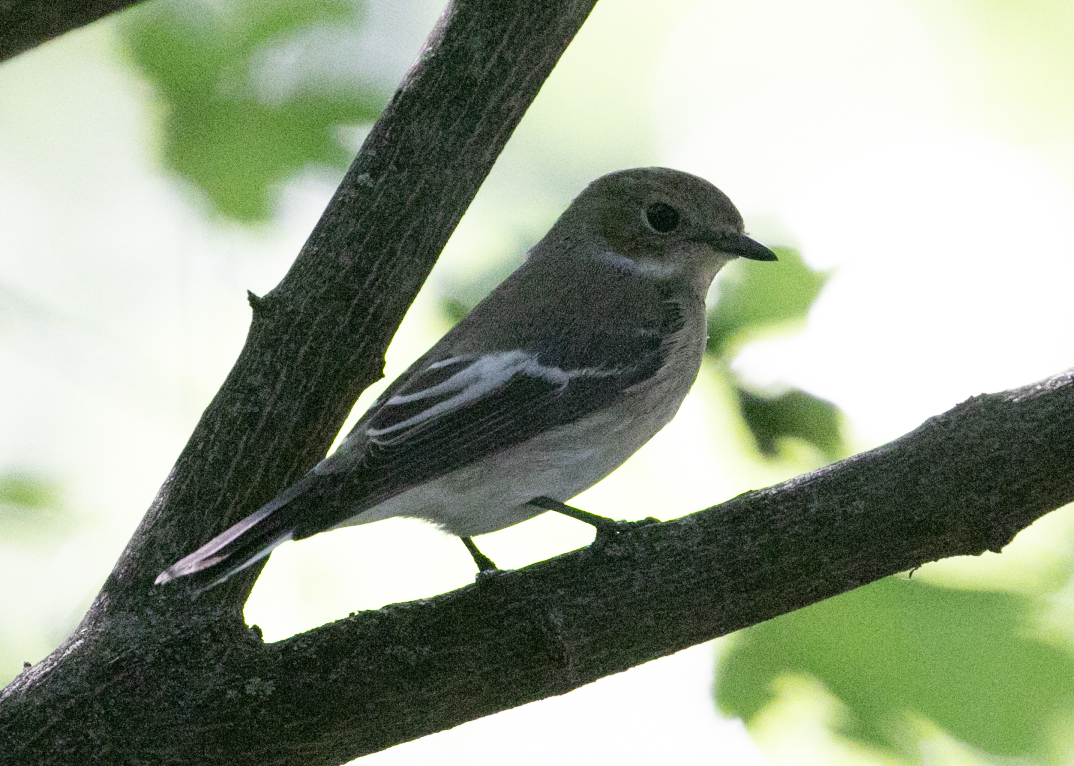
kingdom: Animalia
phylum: Chordata
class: Aves
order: Passeriformes
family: Muscicapidae
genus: Ficedula
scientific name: Ficedula hypoleuca
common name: European pied flycatcher
